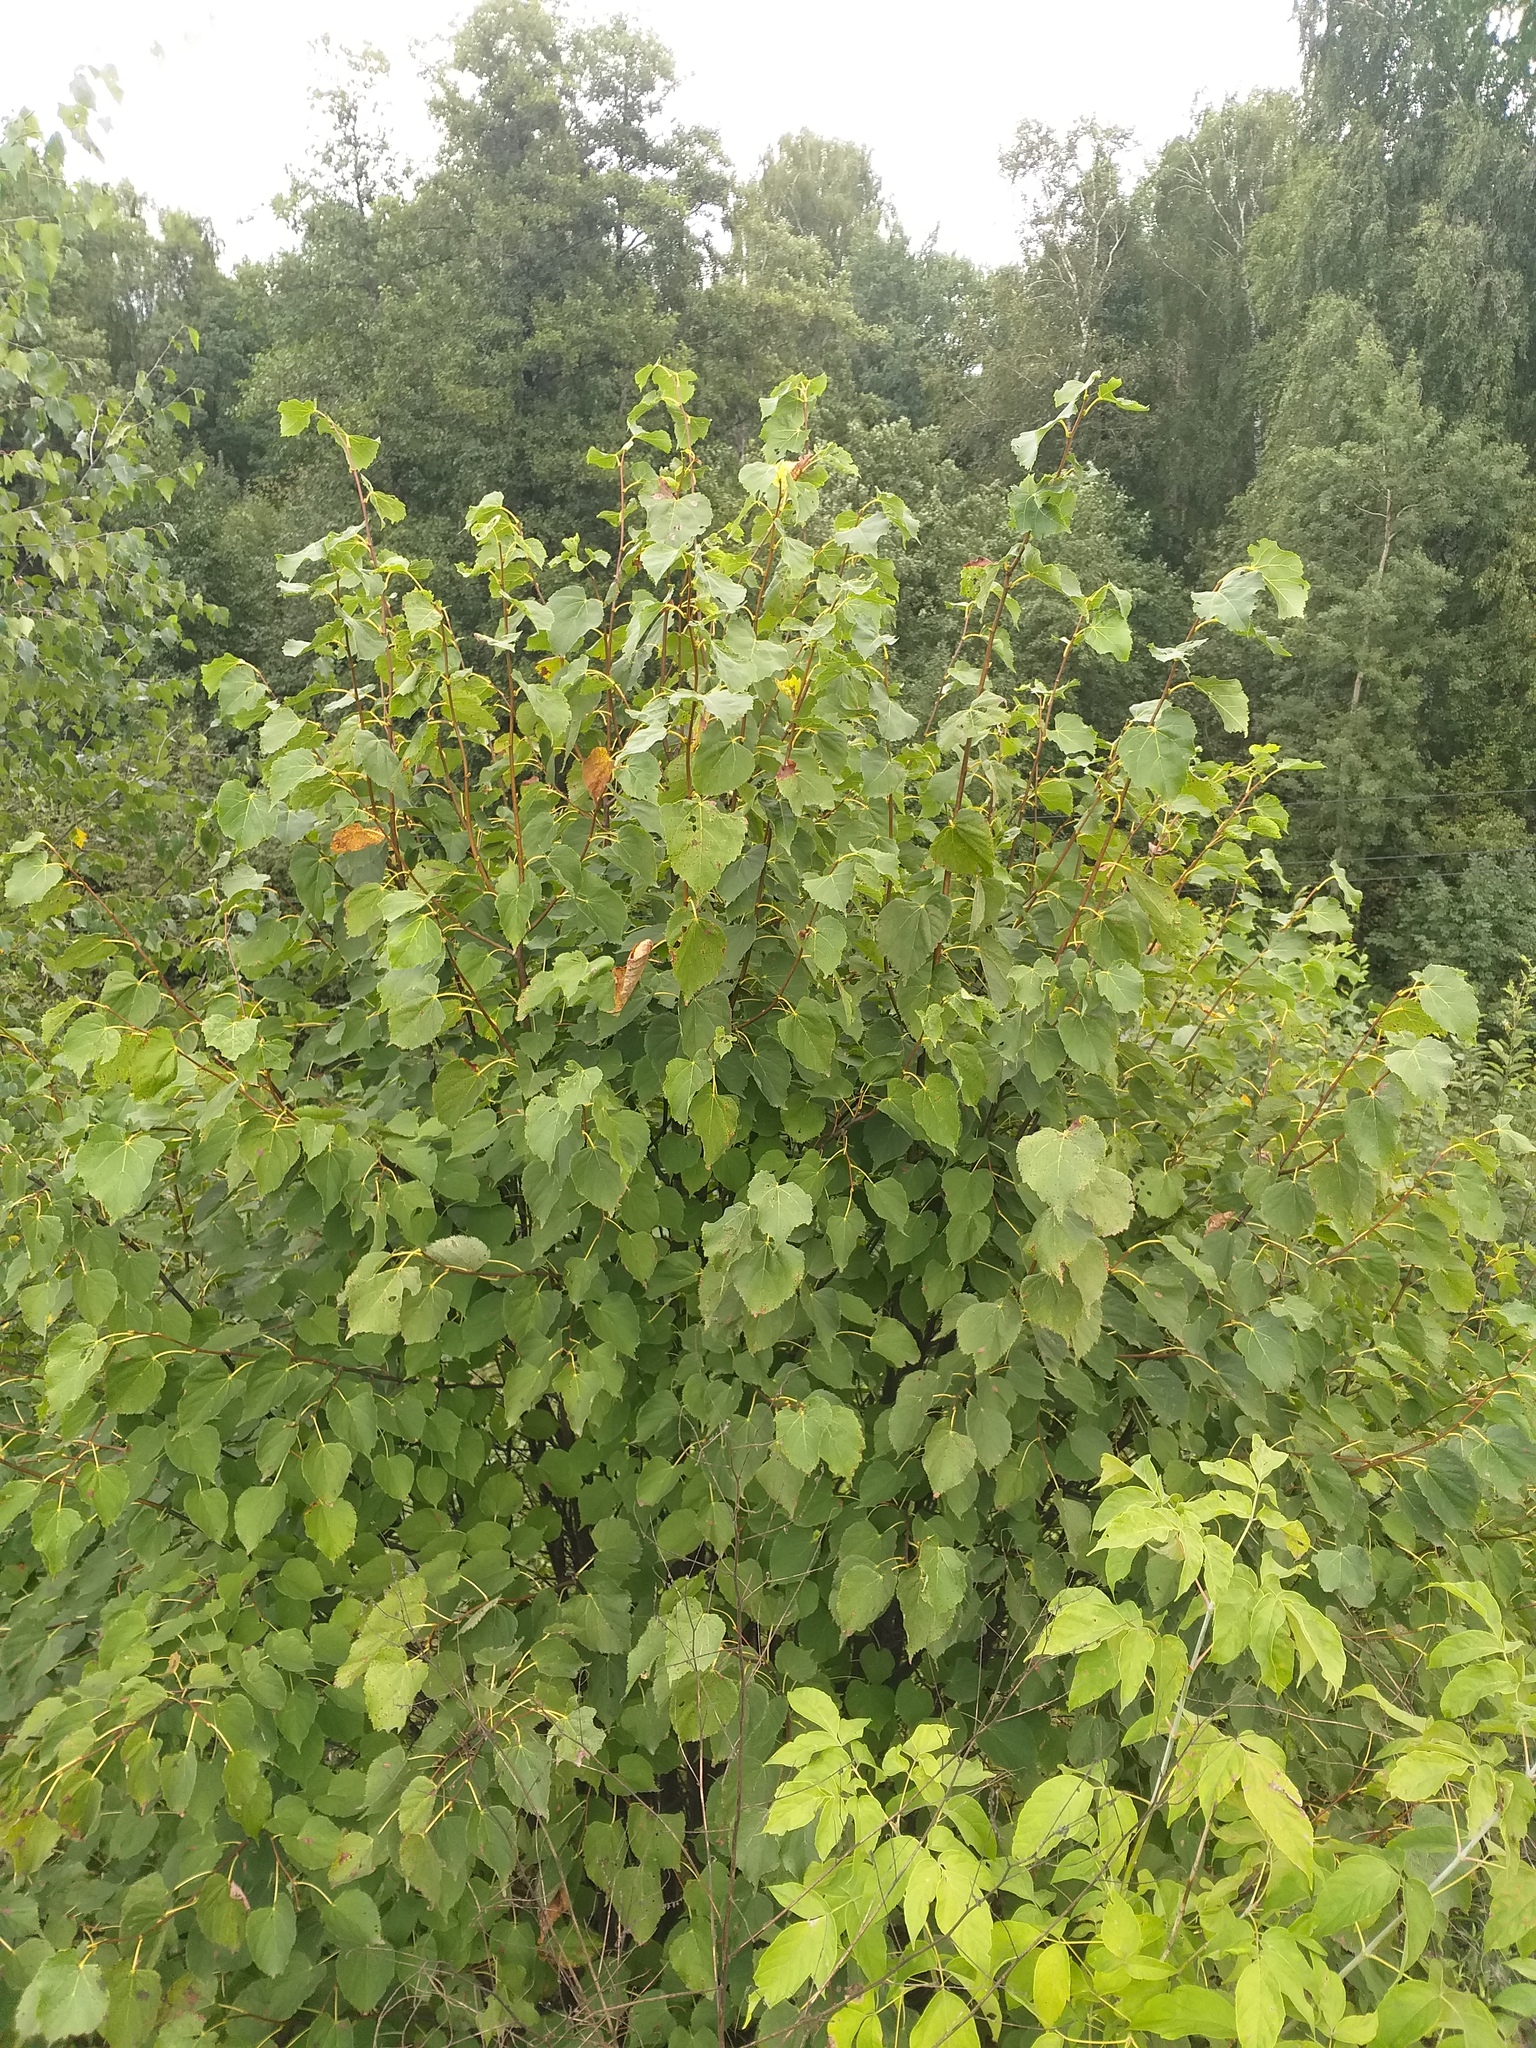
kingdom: Plantae
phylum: Tracheophyta
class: Magnoliopsida
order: Malvales
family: Malvaceae
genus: Tilia
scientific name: Tilia cordata
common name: Small-leaved lime
